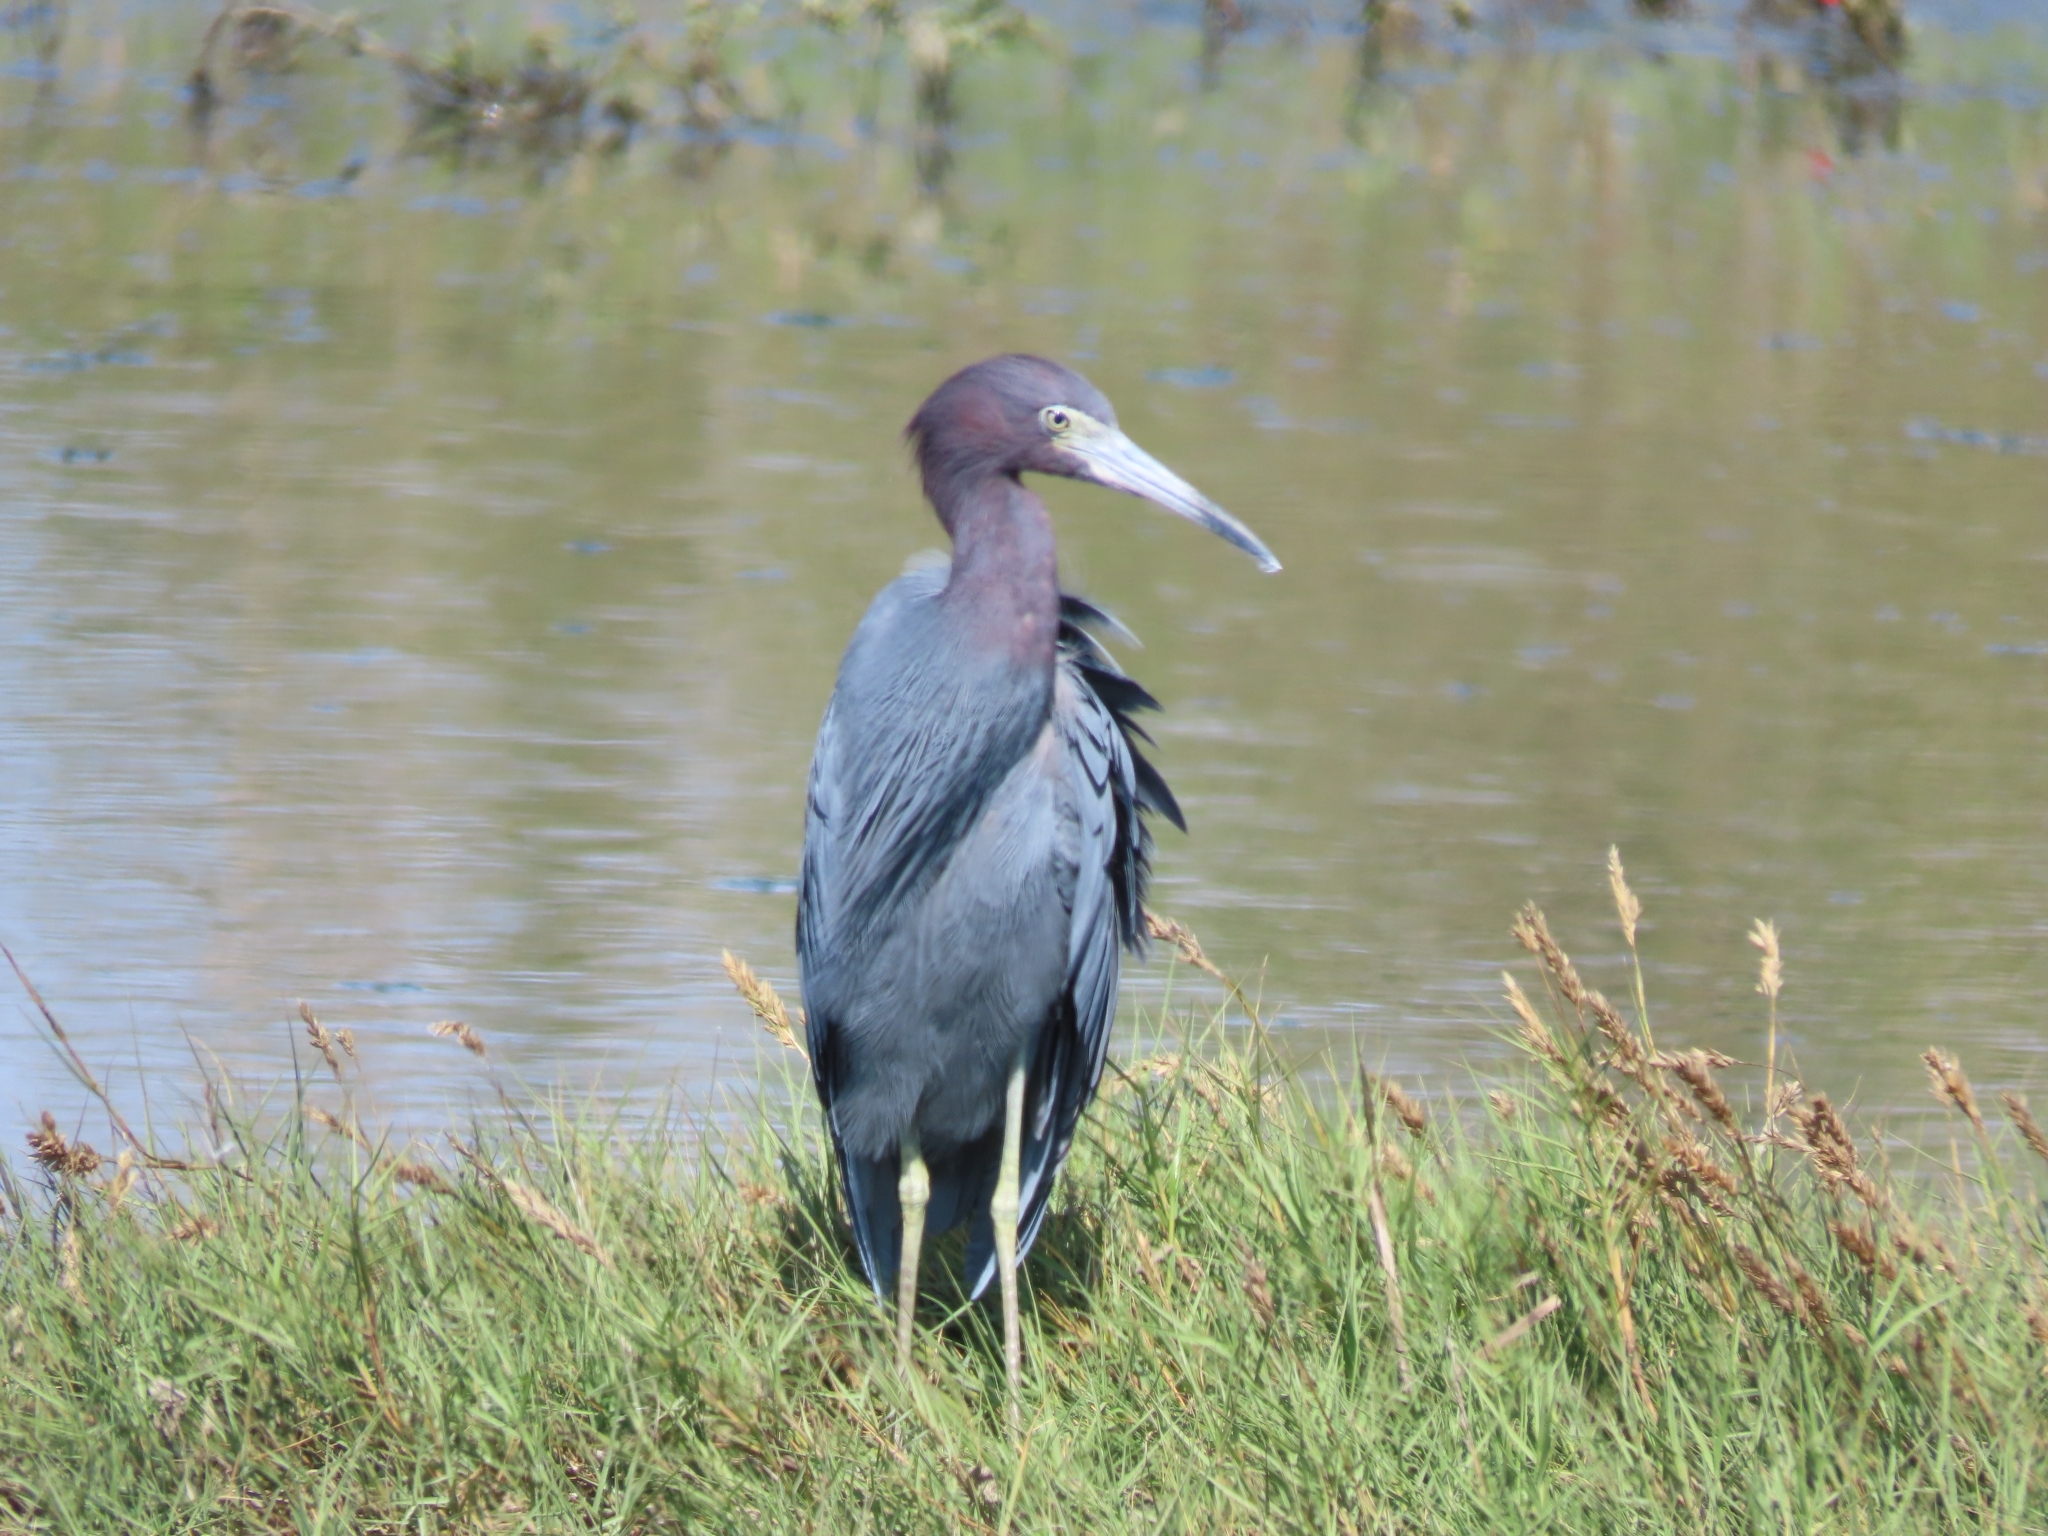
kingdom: Animalia
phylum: Chordata
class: Aves
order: Pelecaniformes
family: Ardeidae
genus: Egretta
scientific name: Egretta caerulea
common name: Little blue heron
